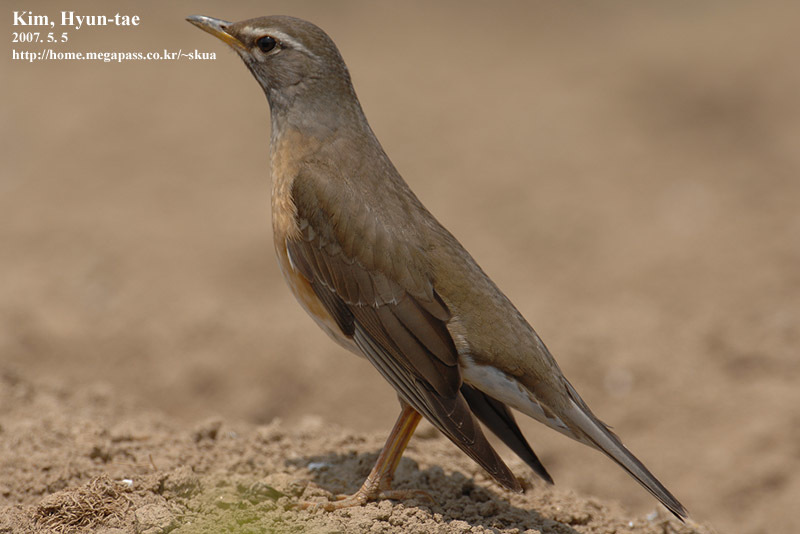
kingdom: Animalia
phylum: Chordata
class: Aves
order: Passeriformes
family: Turdidae
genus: Turdus
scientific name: Turdus obscurus
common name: Eyebrowed thrush
